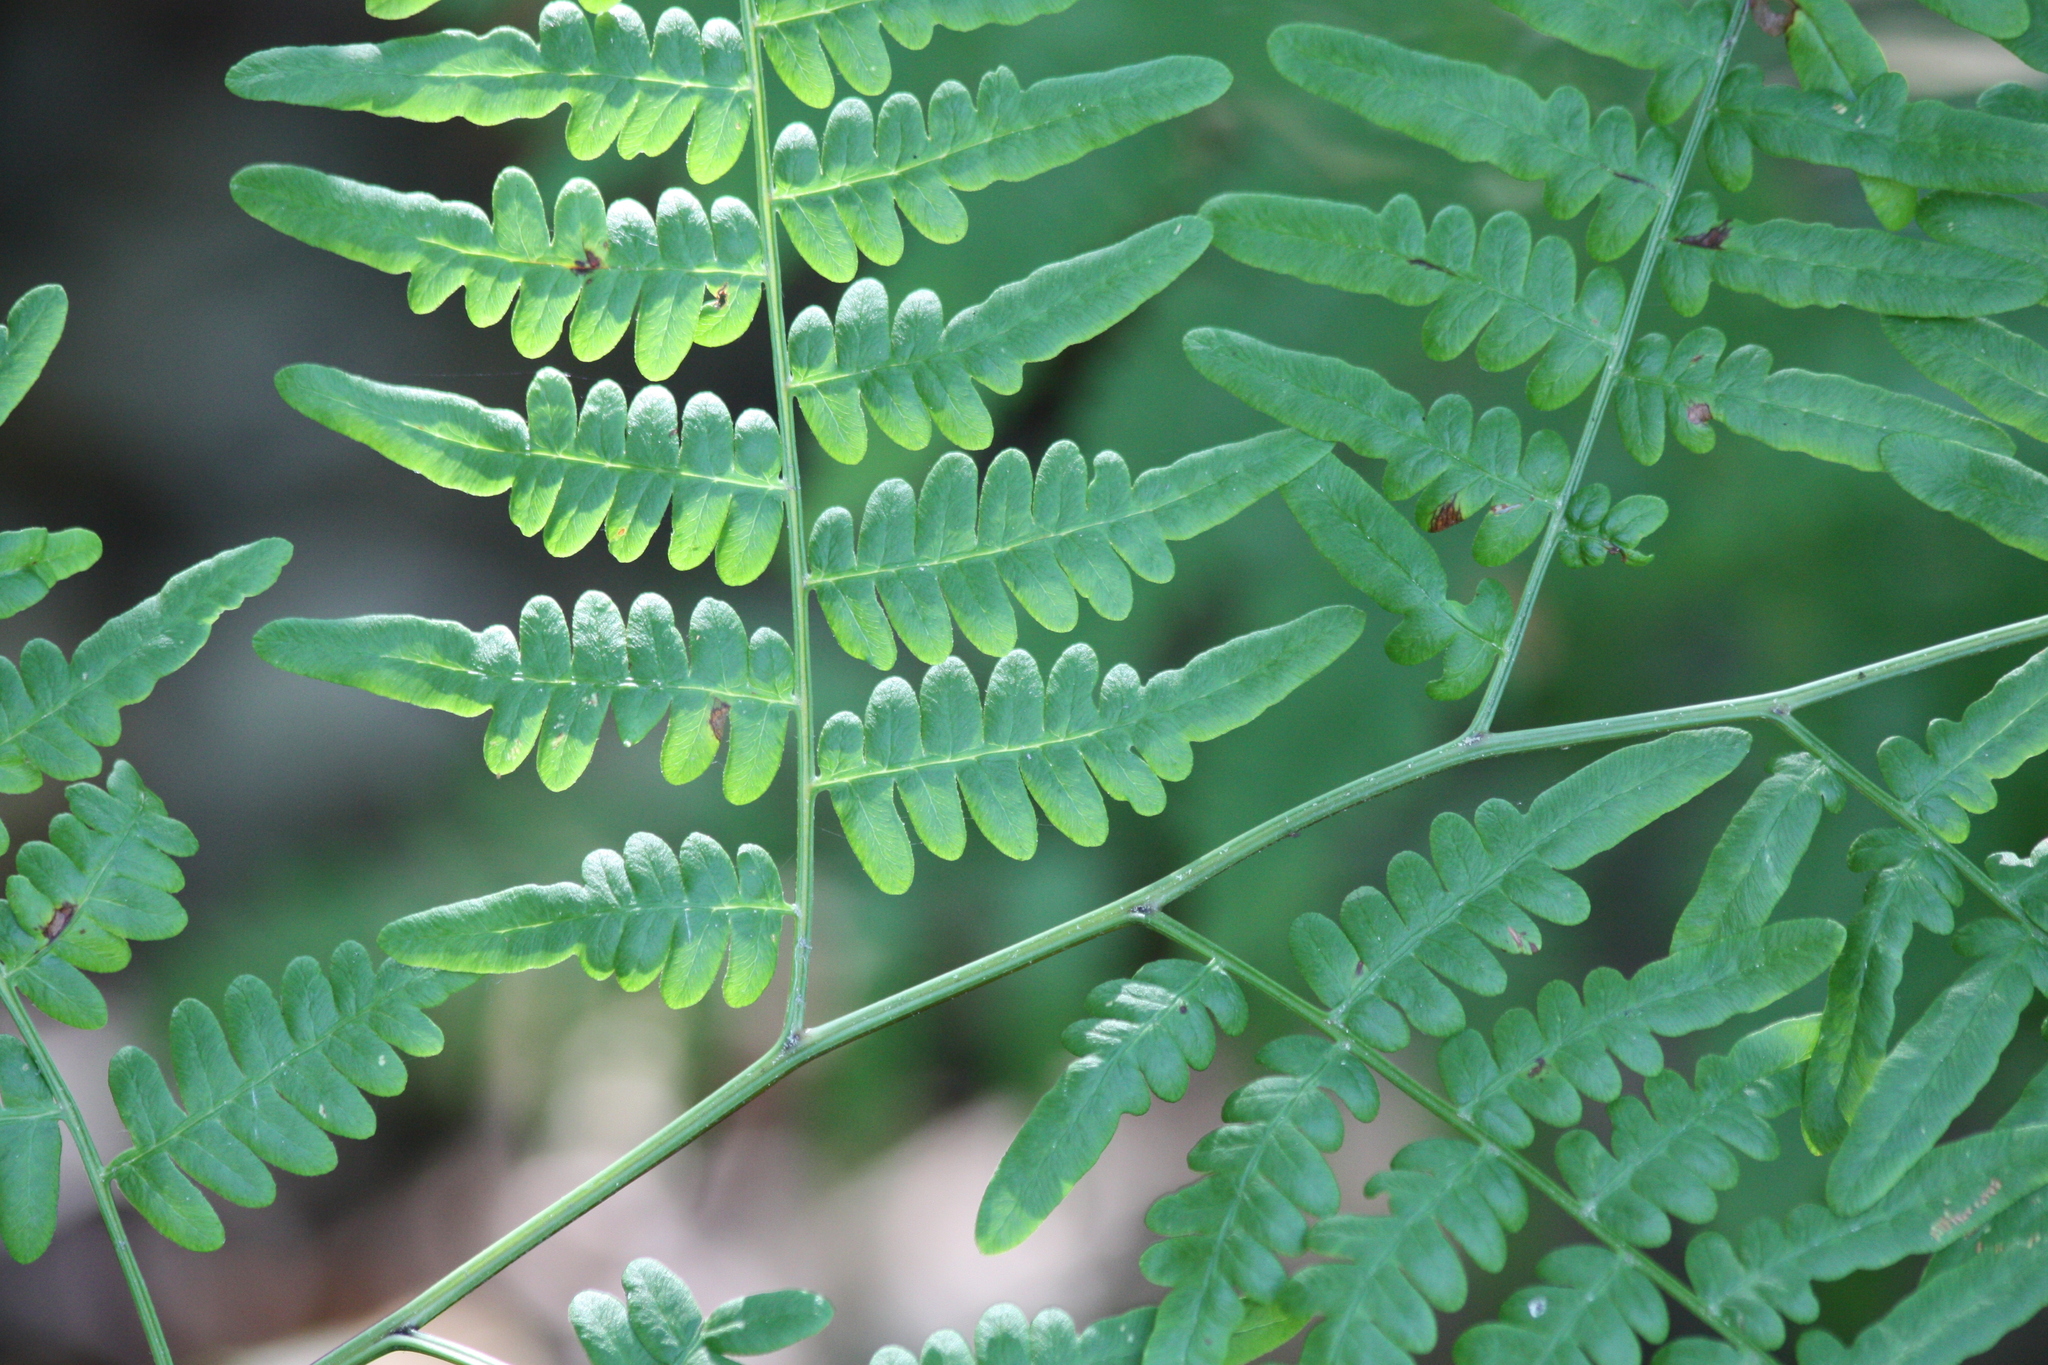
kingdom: Plantae
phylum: Tracheophyta
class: Polypodiopsida
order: Polypodiales
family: Dennstaedtiaceae
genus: Pteridium
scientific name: Pteridium aquilinum
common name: Bracken
